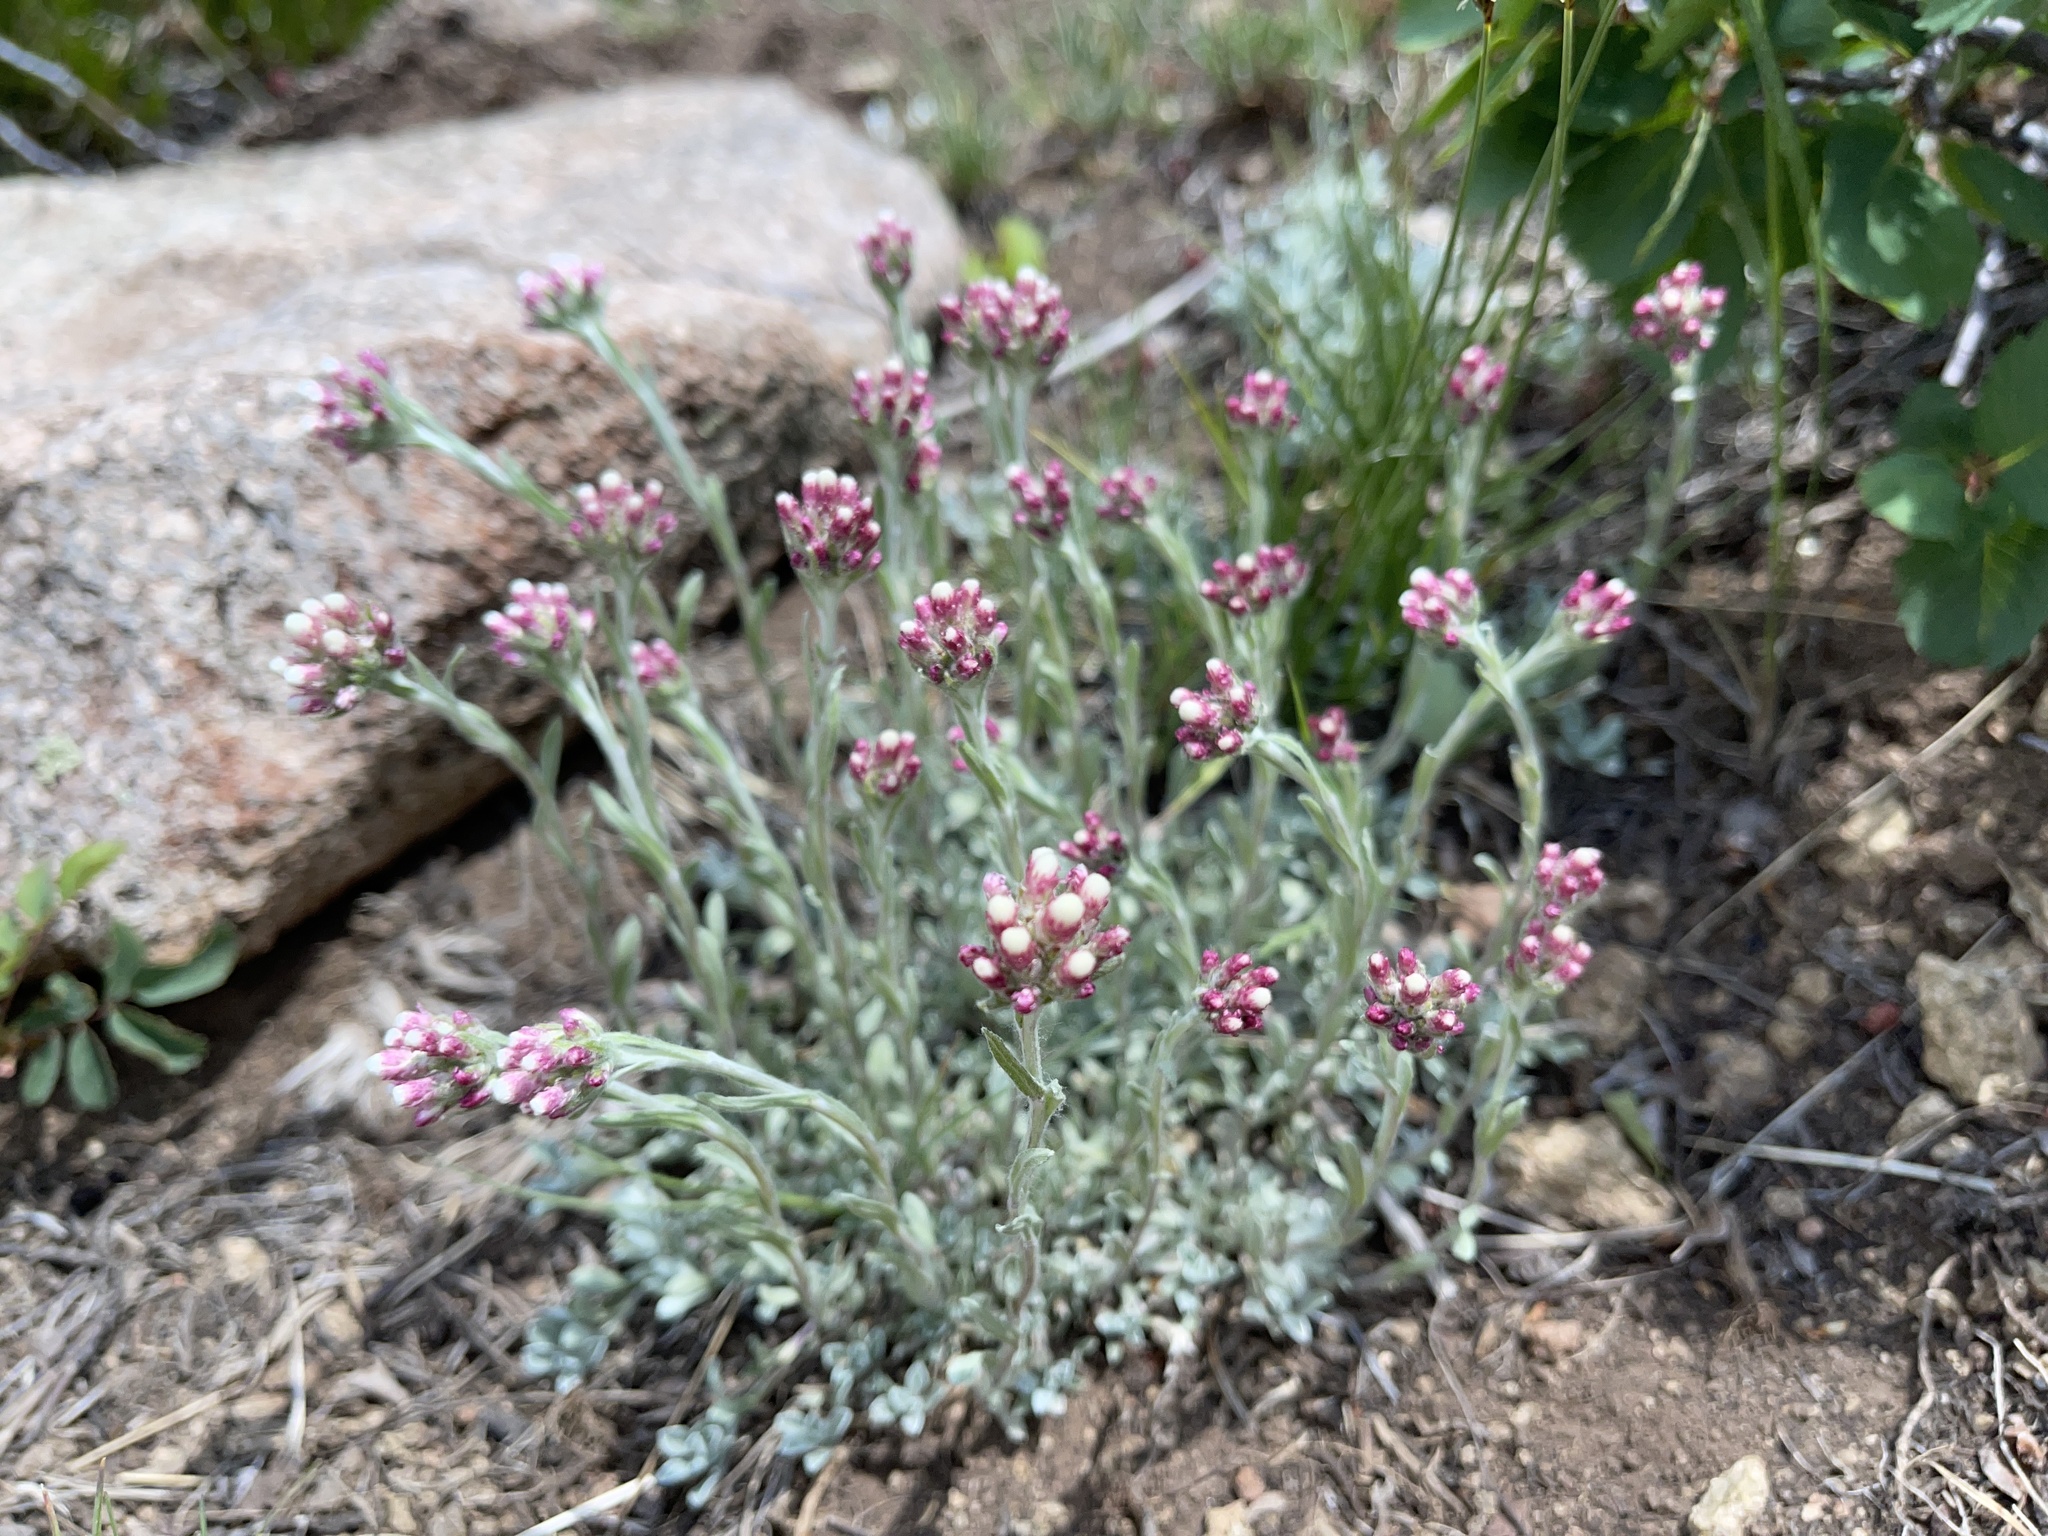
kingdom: Plantae
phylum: Tracheophyta
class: Magnoliopsida
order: Asterales
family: Asteraceae
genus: Antennaria
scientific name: Antennaria rosea
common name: Rosy pussytoes
